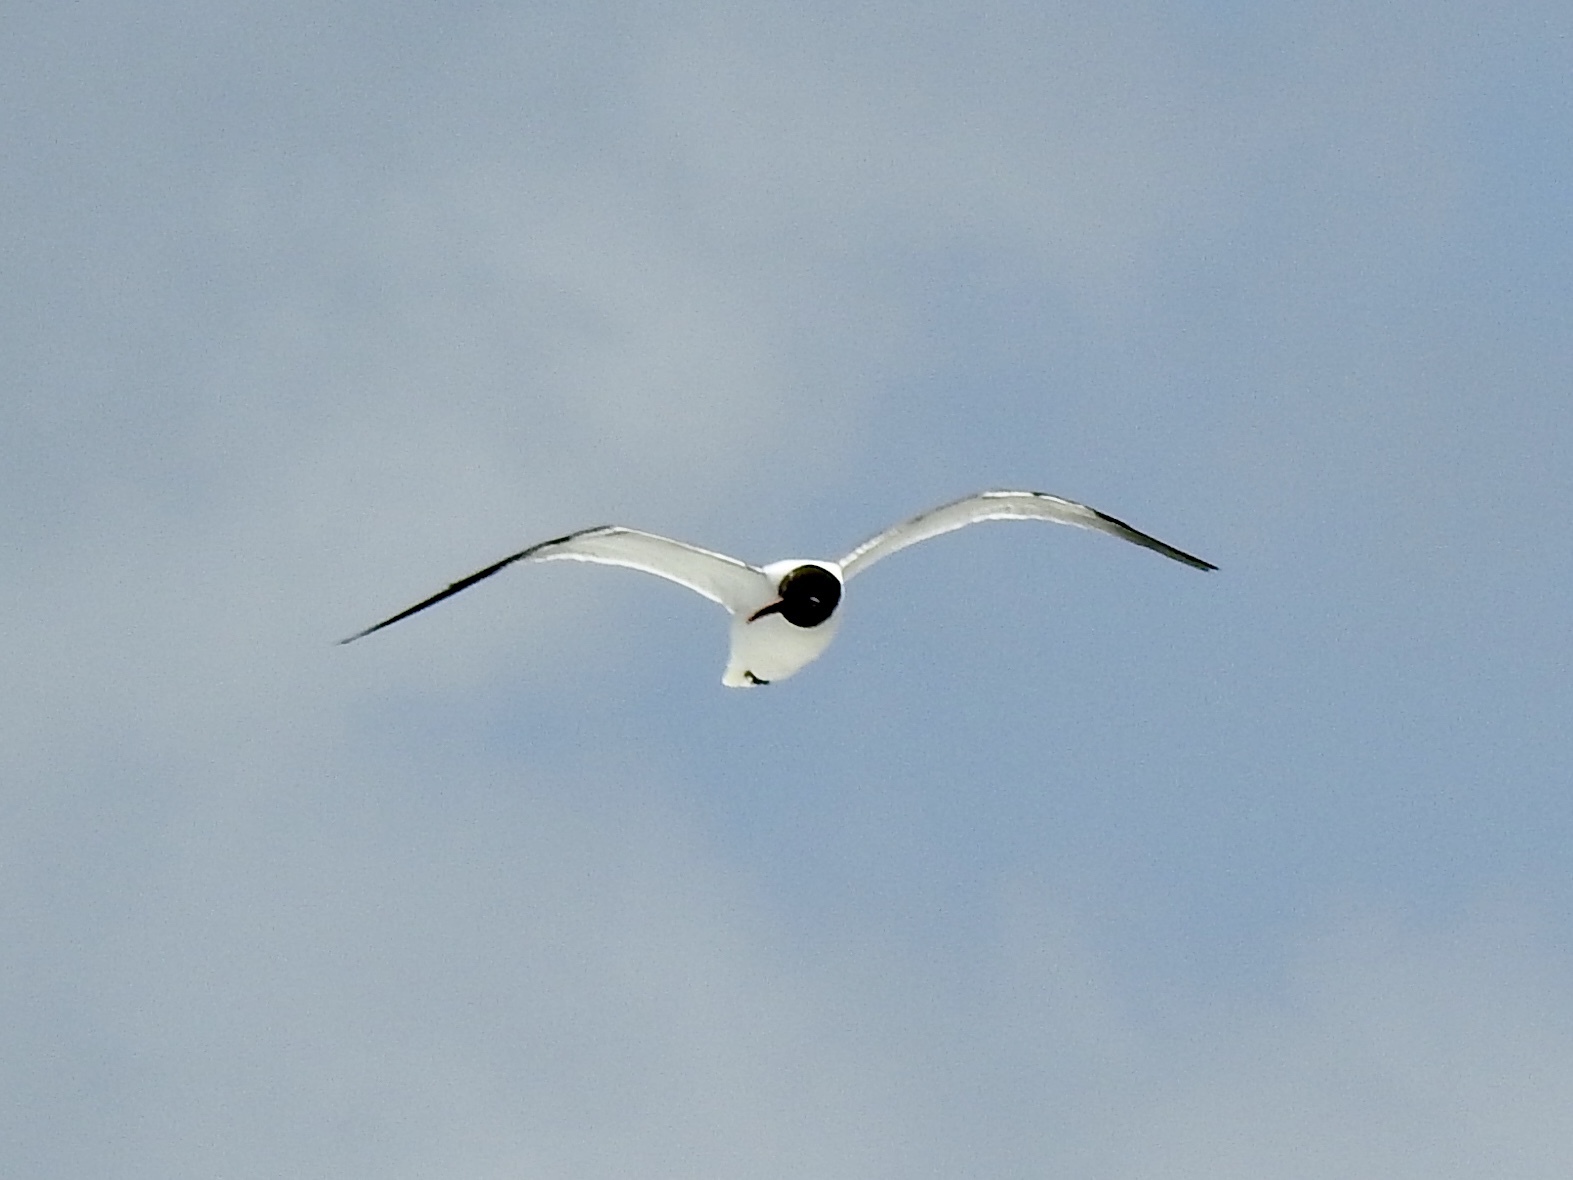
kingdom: Animalia
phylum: Chordata
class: Aves
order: Charadriiformes
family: Laridae
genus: Leucophaeus
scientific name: Leucophaeus atricilla
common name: Laughing gull
